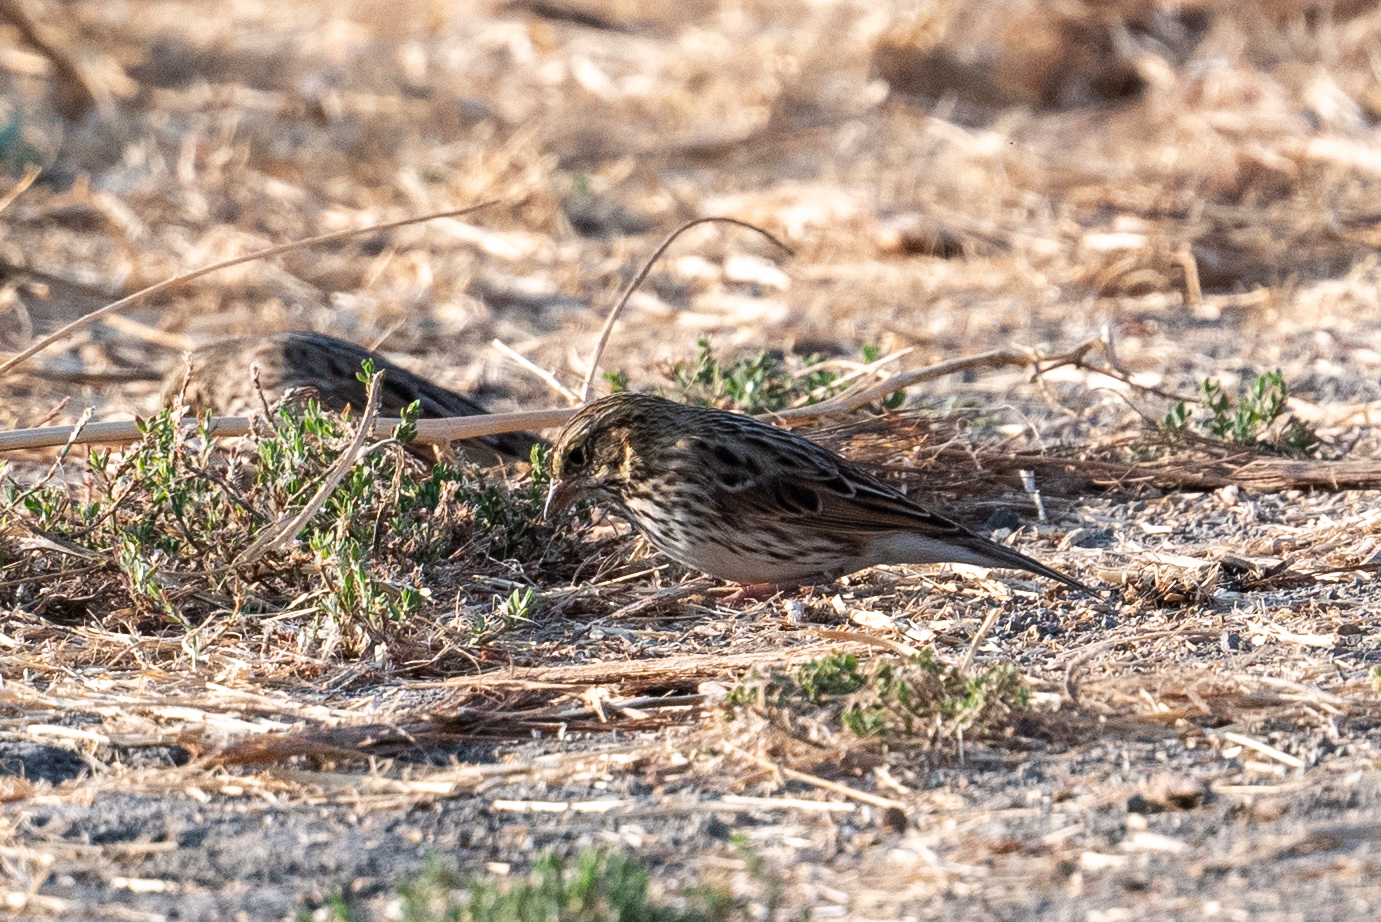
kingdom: Animalia
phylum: Chordata
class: Aves
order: Passeriformes
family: Passerellidae
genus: Passerculus
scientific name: Passerculus sandwichensis
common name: Savannah sparrow
